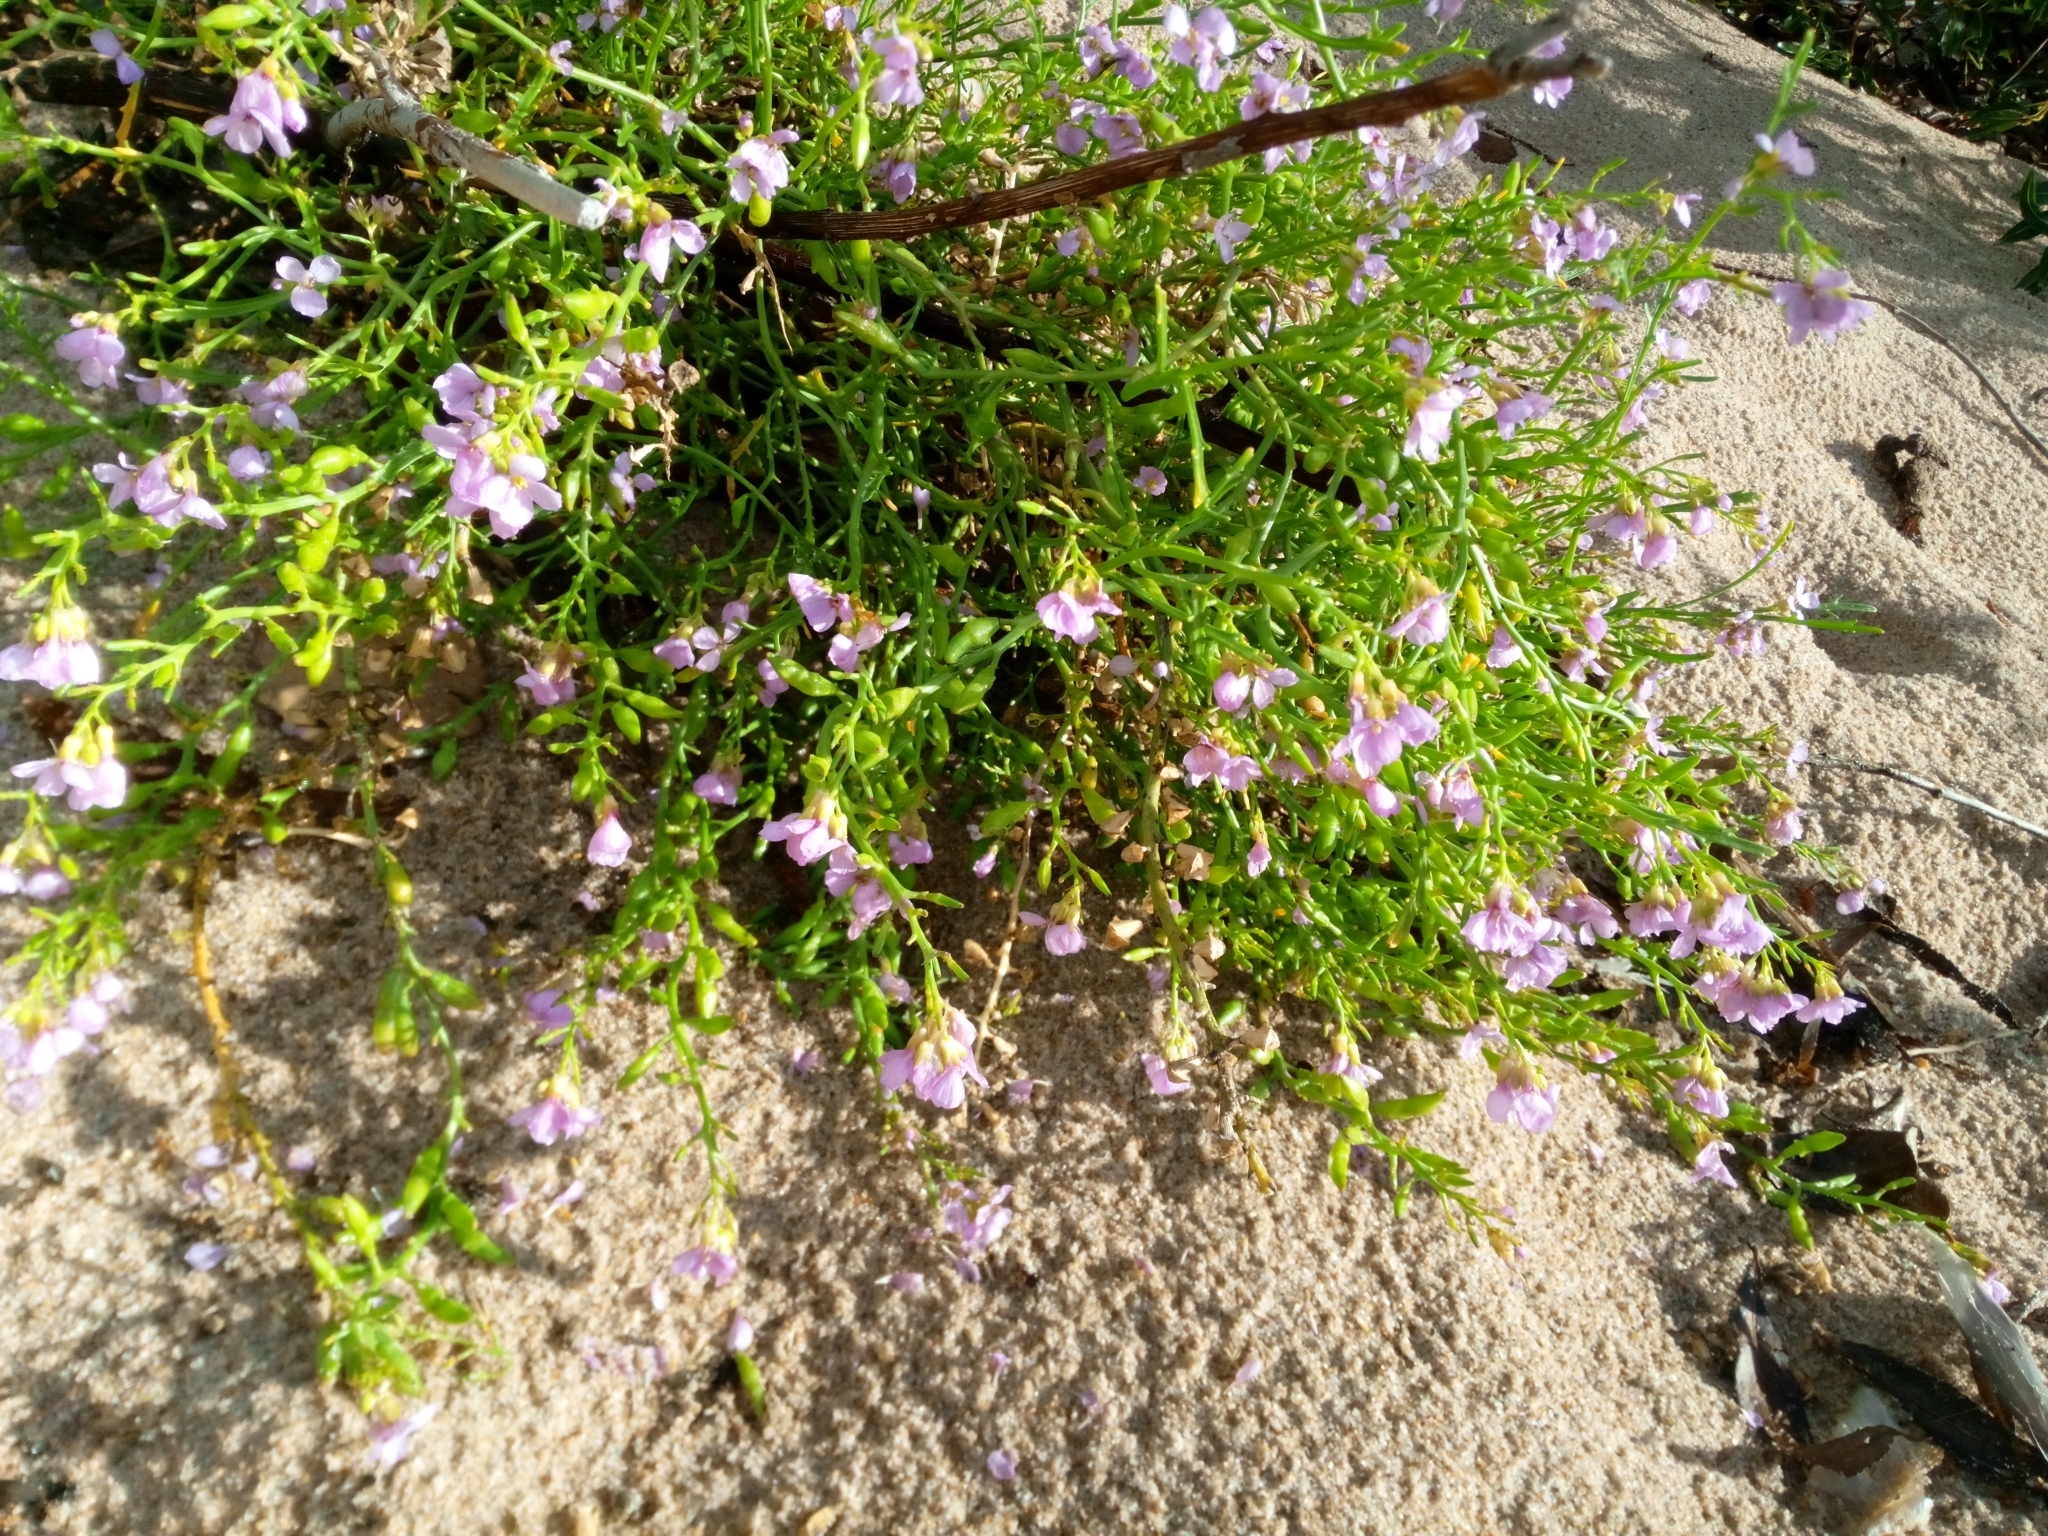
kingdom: Plantae
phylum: Tracheophyta
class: Magnoliopsida
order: Brassicales
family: Brassicaceae
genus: Cakile
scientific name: Cakile maritima
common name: Sea rocket
